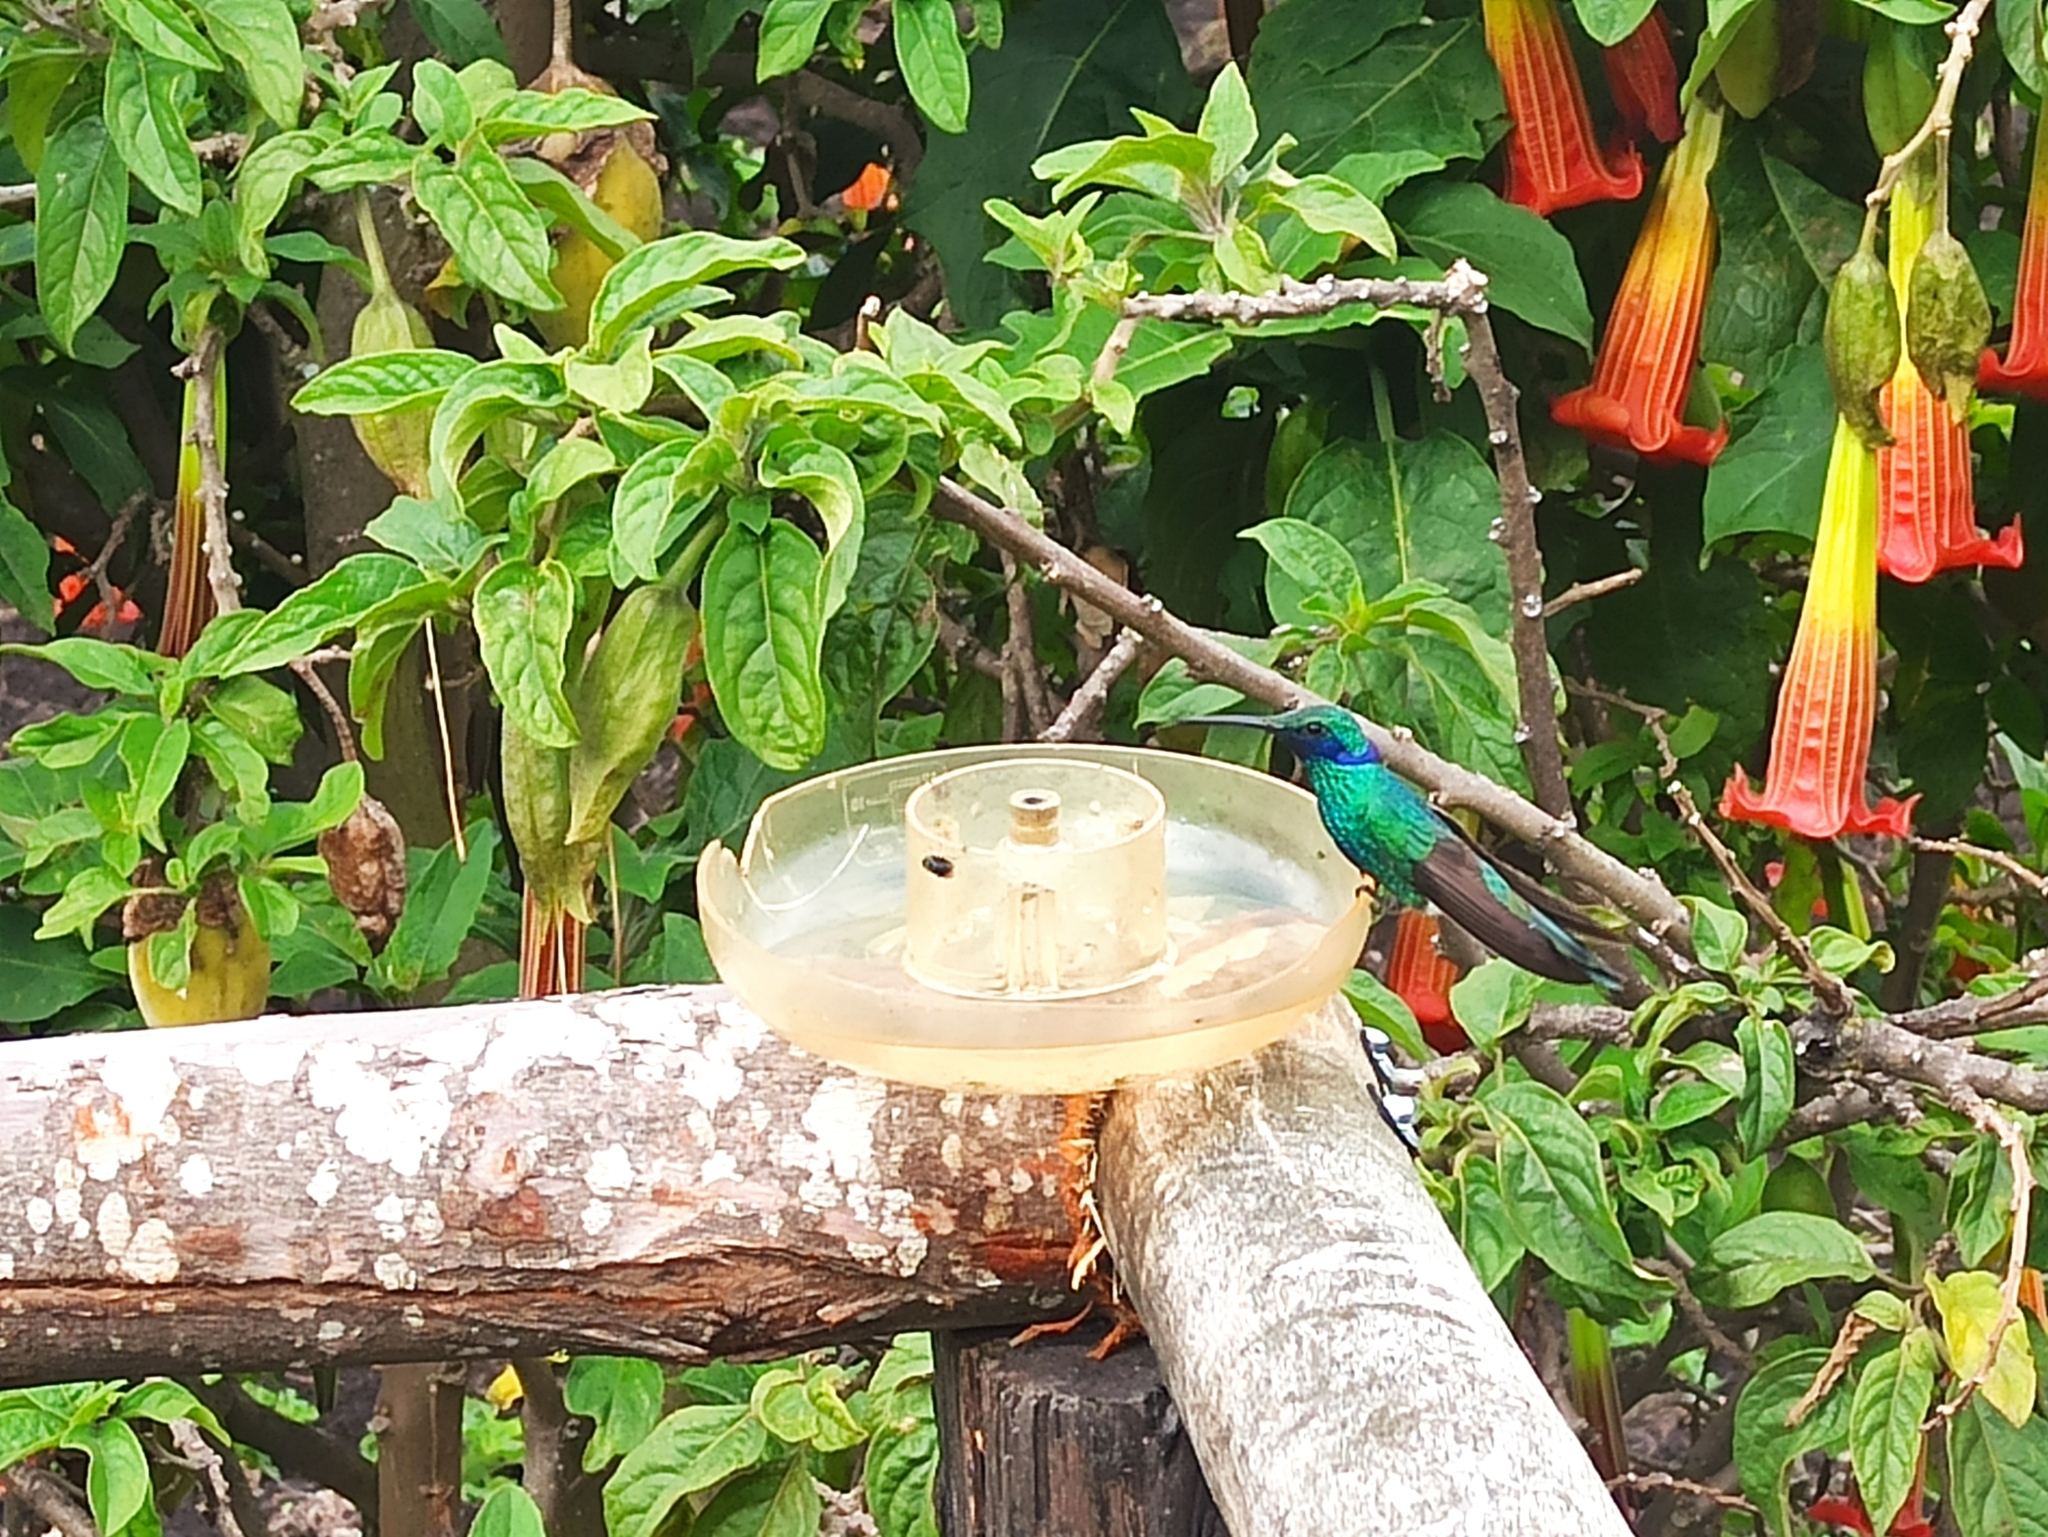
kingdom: Animalia
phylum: Chordata
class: Aves
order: Apodiformes
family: Trochilidae
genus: Colibri
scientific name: Colibri coruscans
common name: Sparkling violetear
